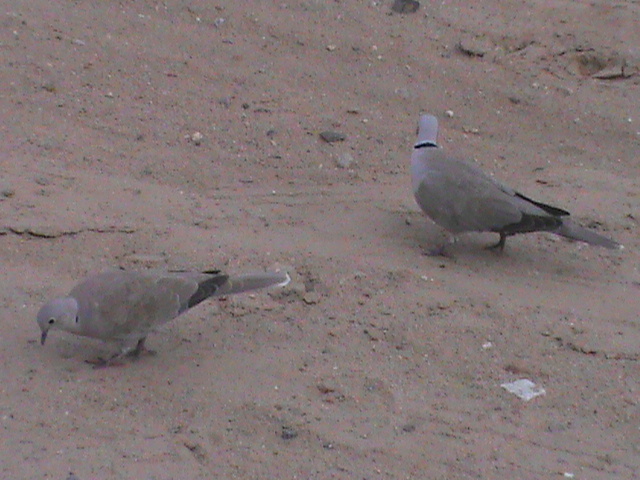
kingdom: Animalia
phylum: Chordata
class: Aves
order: Columbiformes
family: Columbidae
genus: Streptopelia
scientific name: Streptopelia decaocto
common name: Eurasian collared dove
